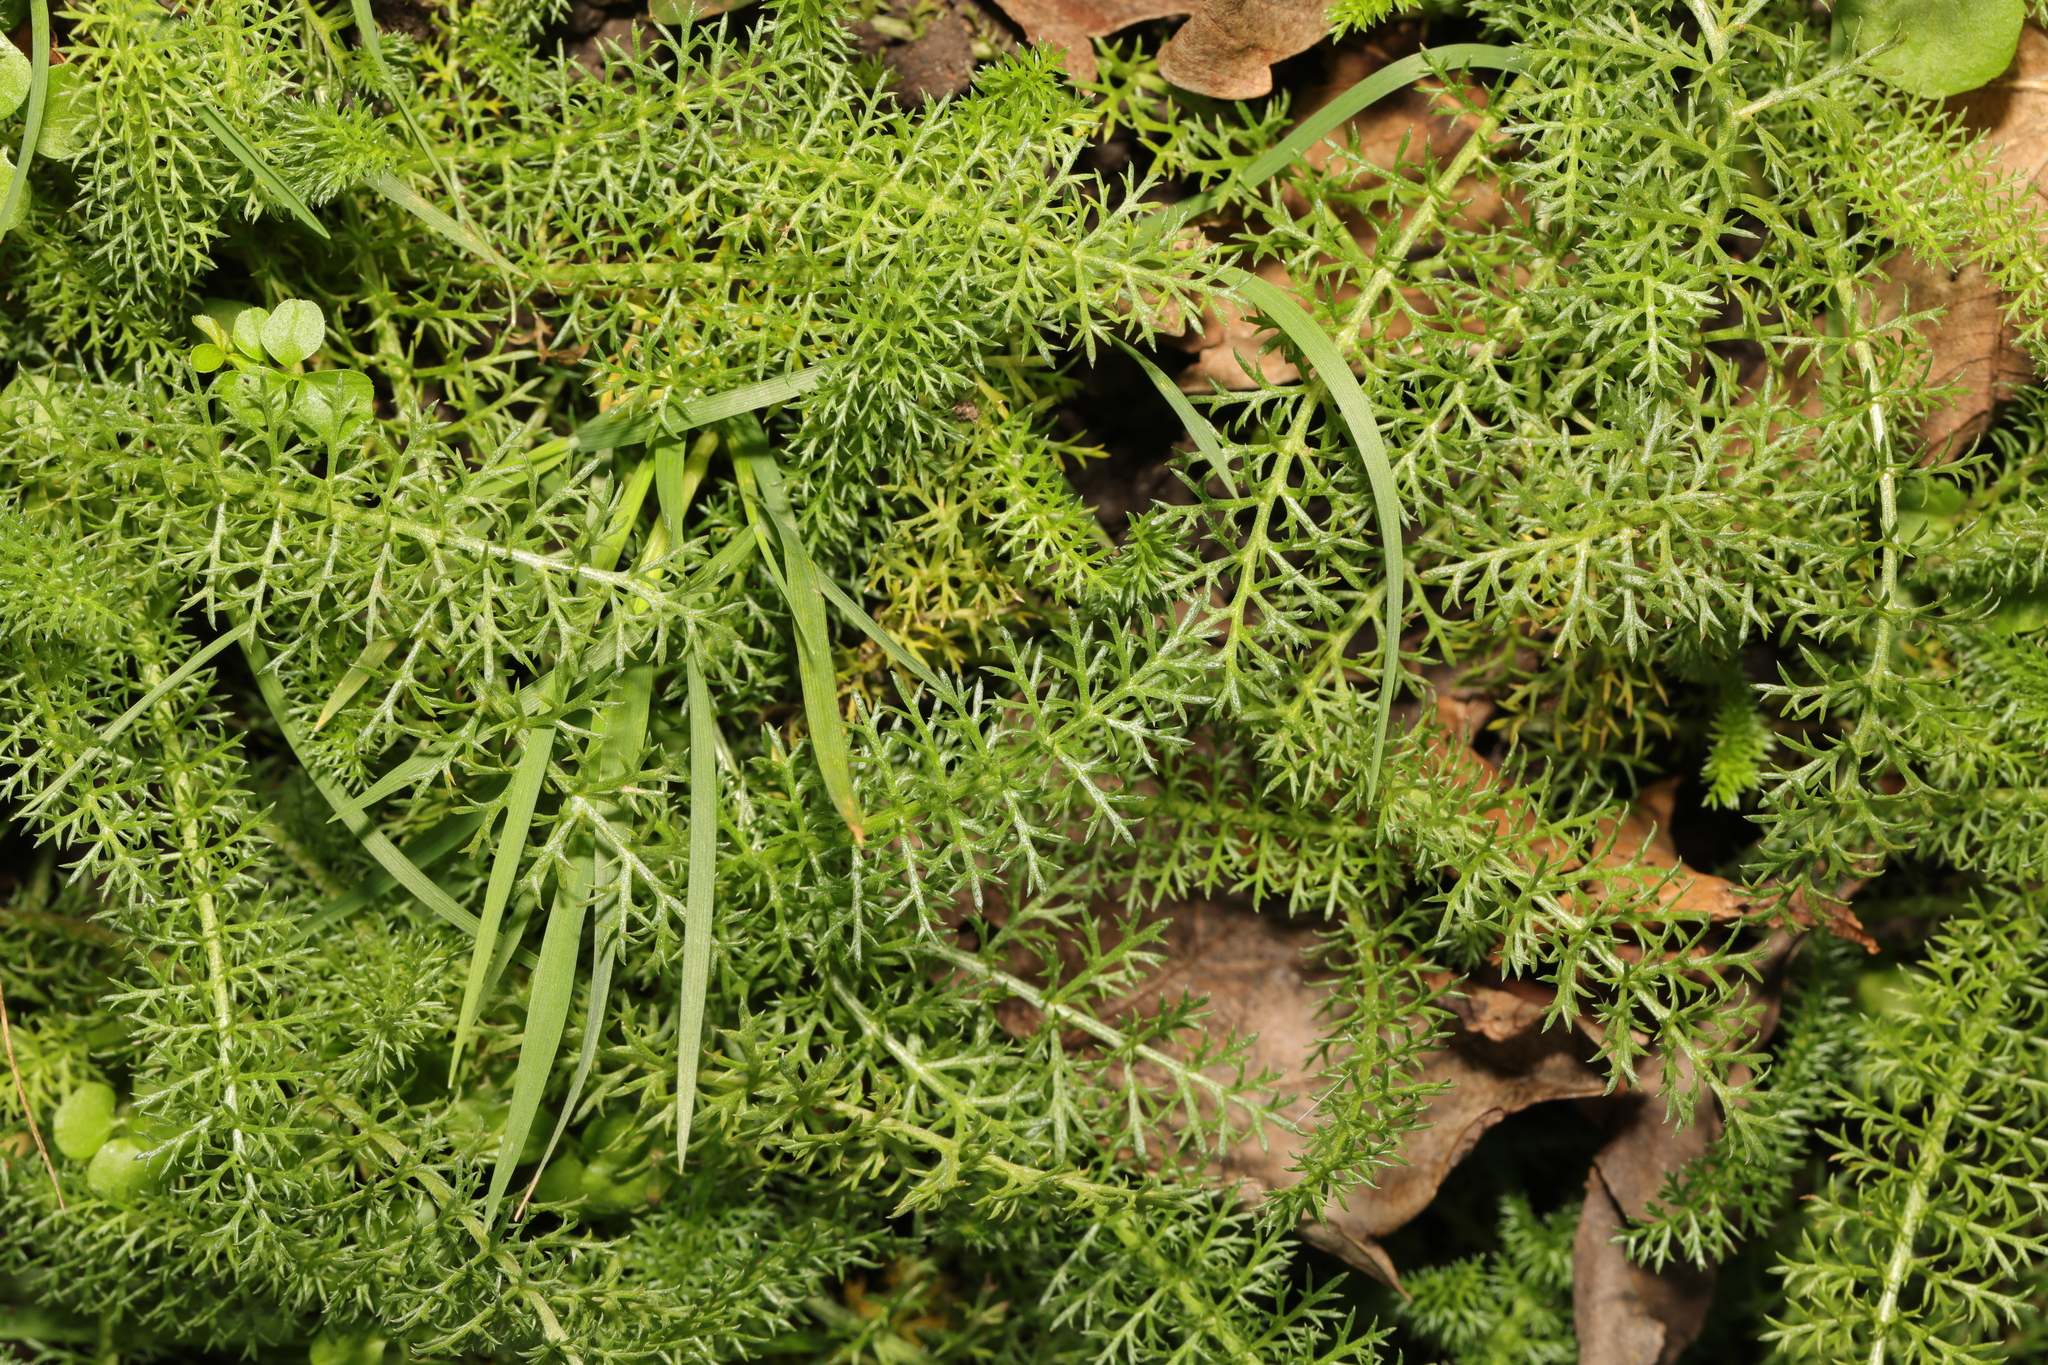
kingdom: Plantae
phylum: Tracheophyta
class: Magnoliopsida
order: Asterales
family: Asteraceae
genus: Achillea
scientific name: Achillea millefolium
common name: Yarrow
